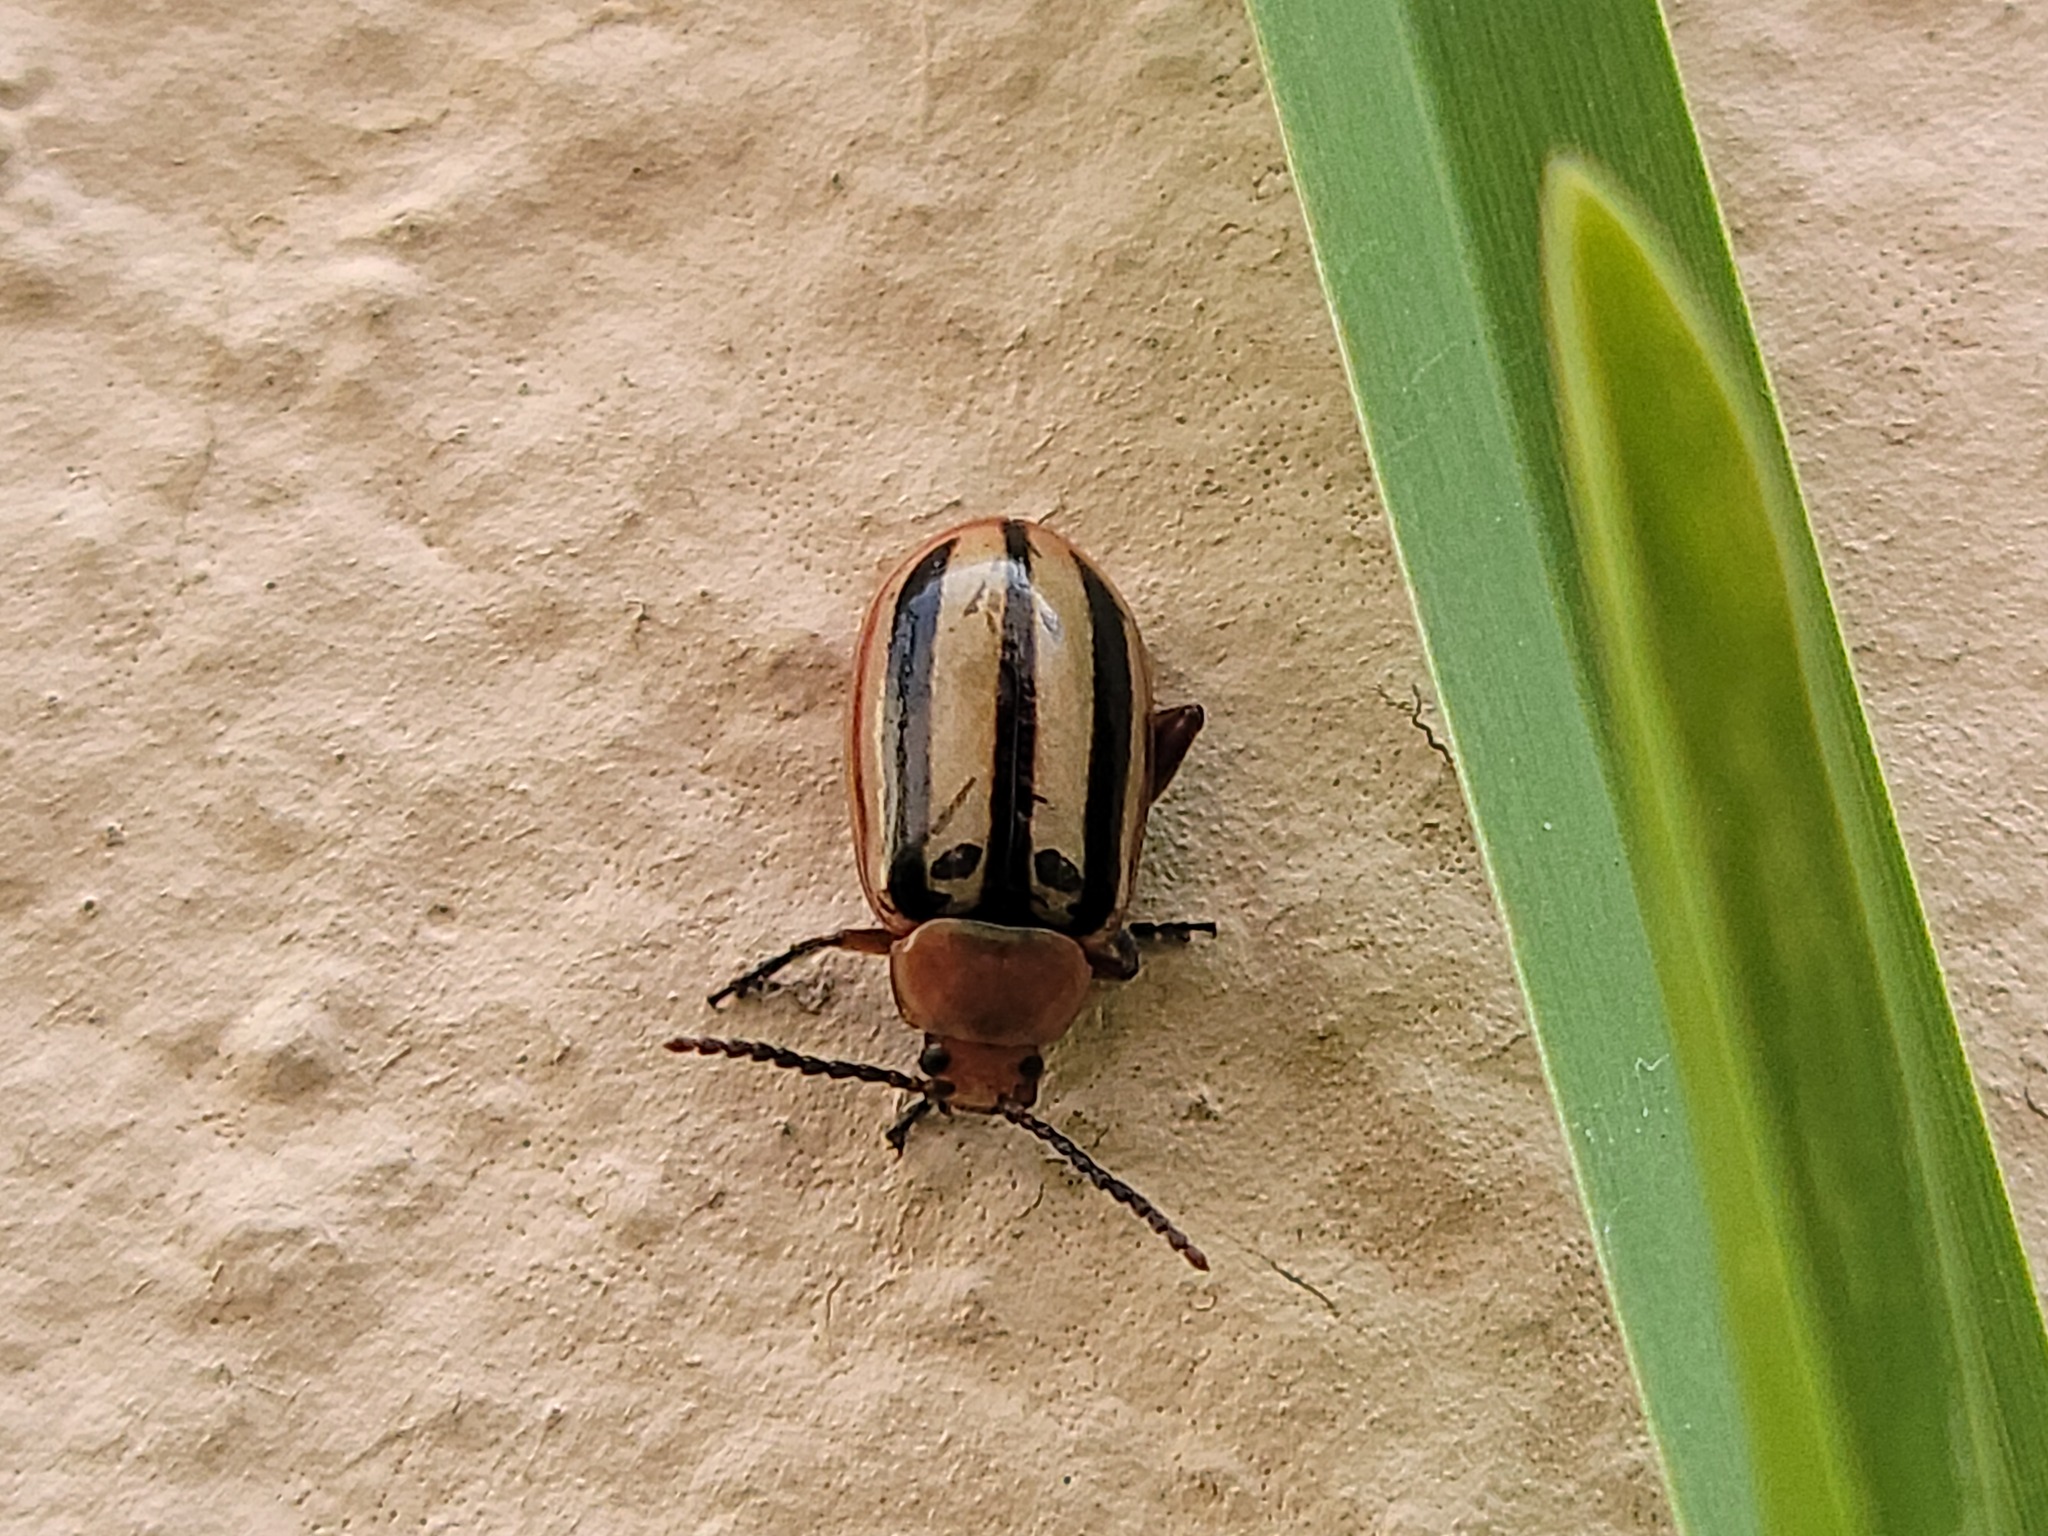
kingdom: Animalia
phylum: Arthropoda
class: Insecta
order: Coleoptera
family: Chrysomelidae
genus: Disonycha
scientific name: Disonycha leptolineata
